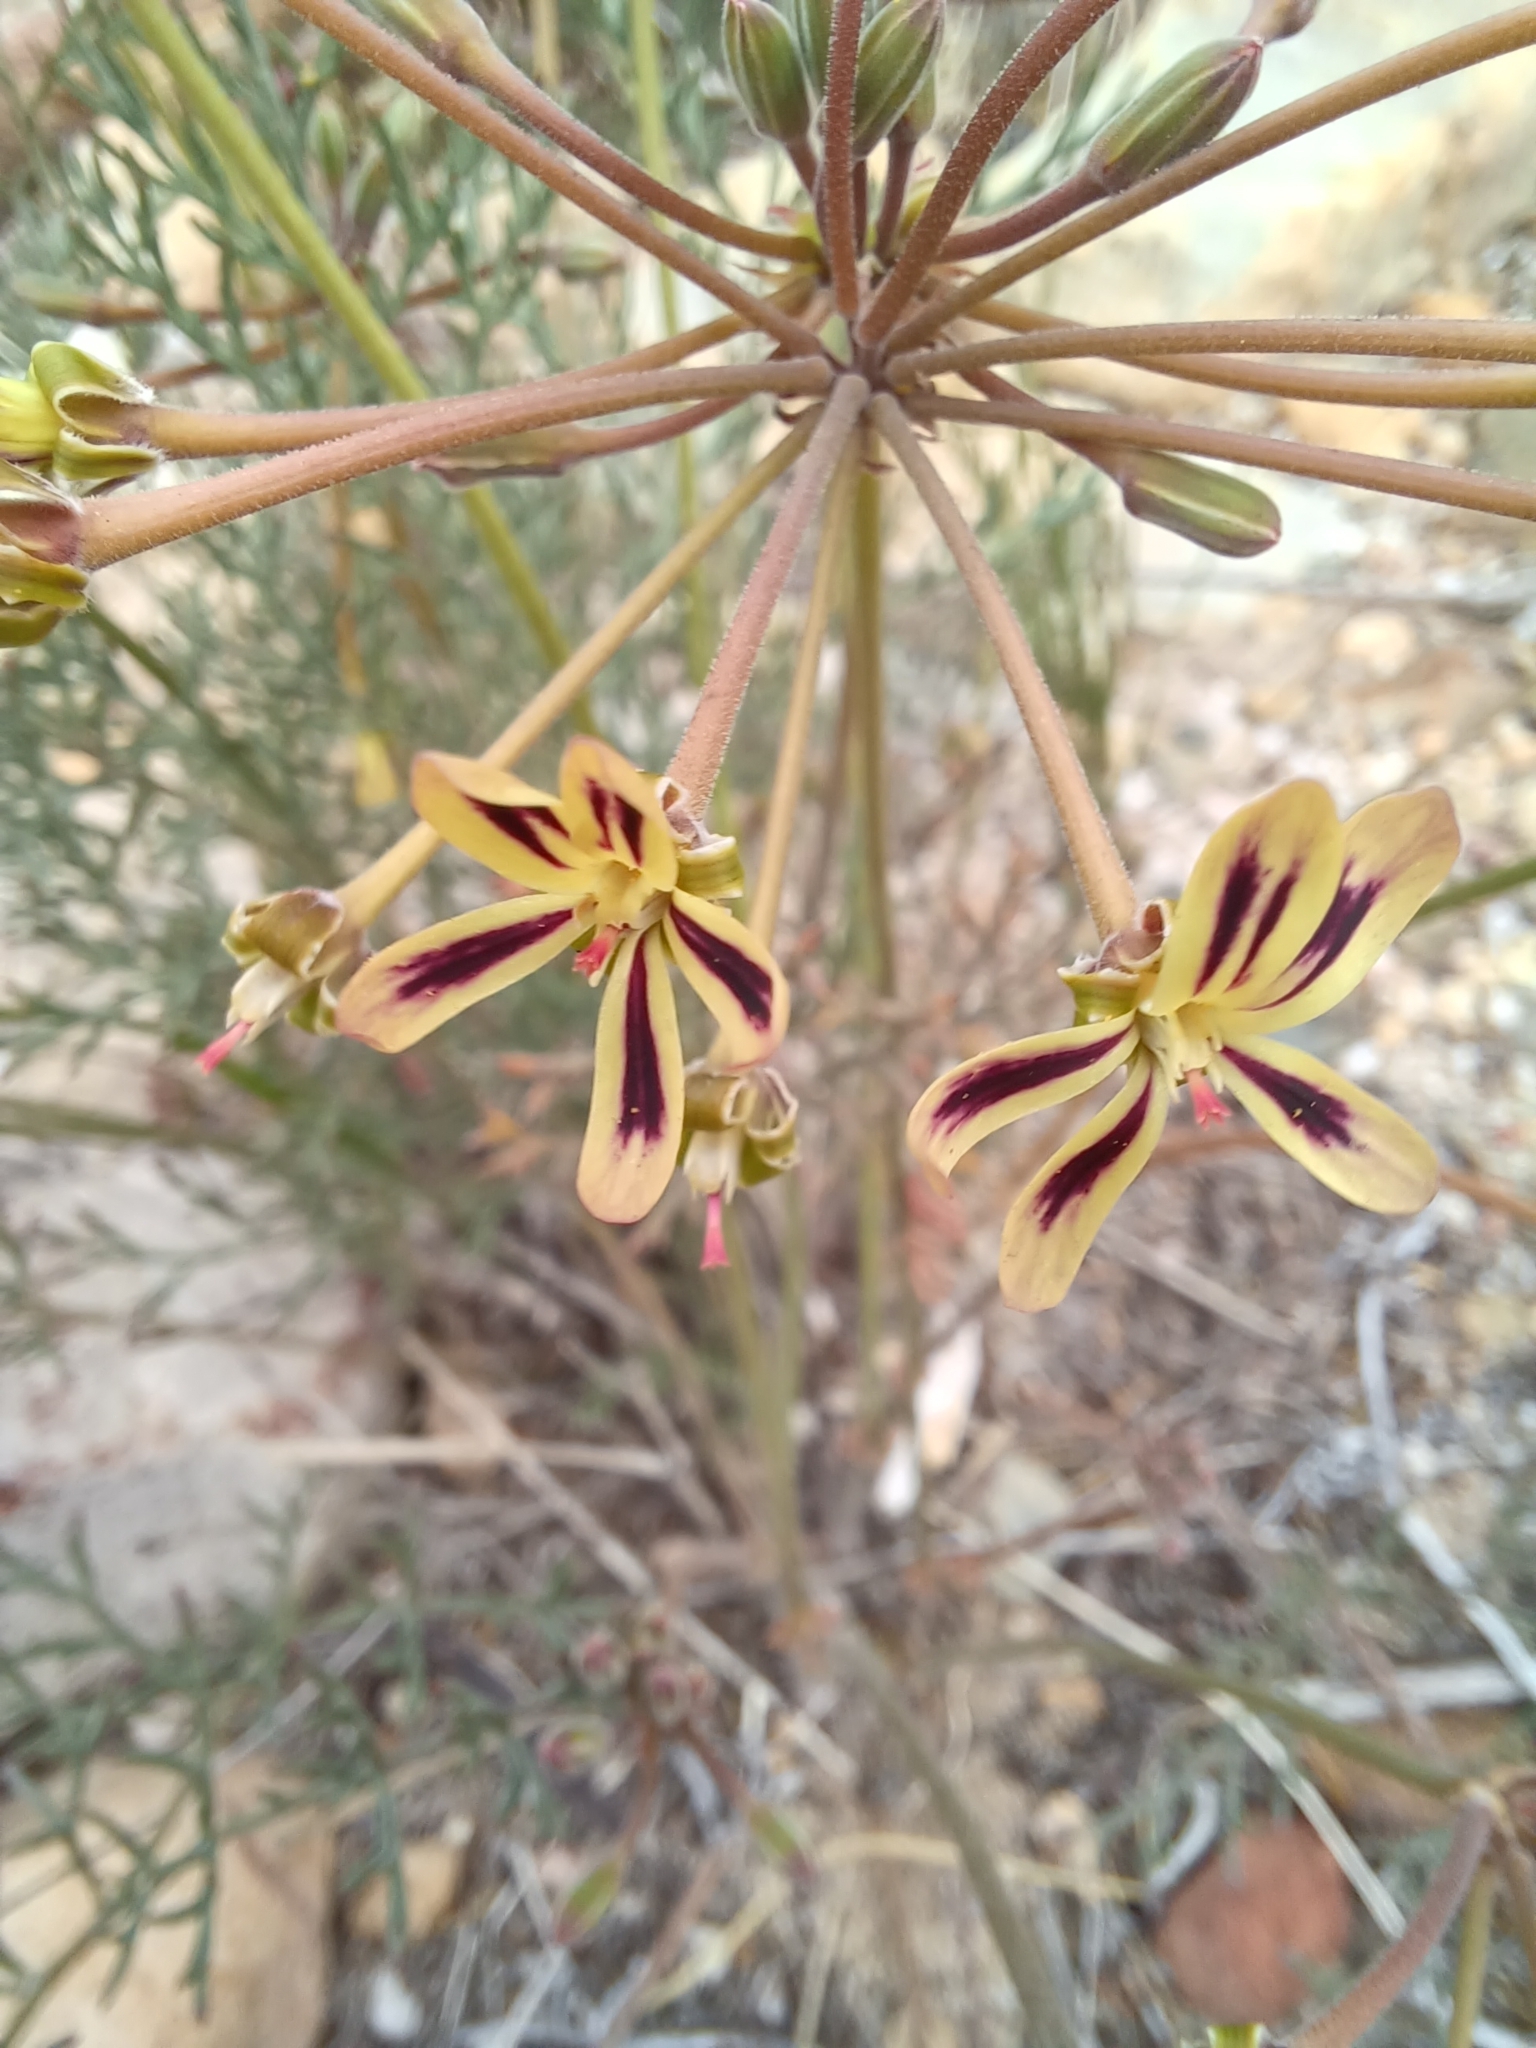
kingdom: Plantae
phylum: Tracheophyta
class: Magnoliopsida
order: Geraniales
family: Geraniaceae
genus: Pelargonium
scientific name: Pelargonium anethifolium
